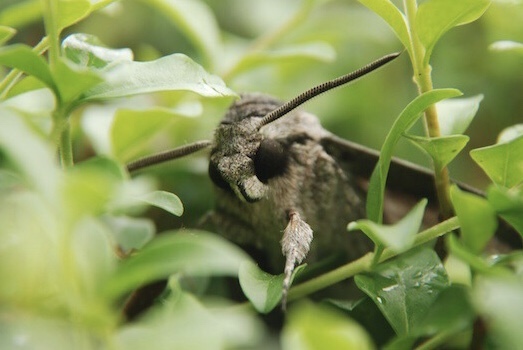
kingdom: Animalia
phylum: Arthropoda
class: Insecta
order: Lepidoptera
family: Sphingidae
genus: Agrius
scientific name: Agrius convolvuli
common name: Convolvulus hawkmoth
